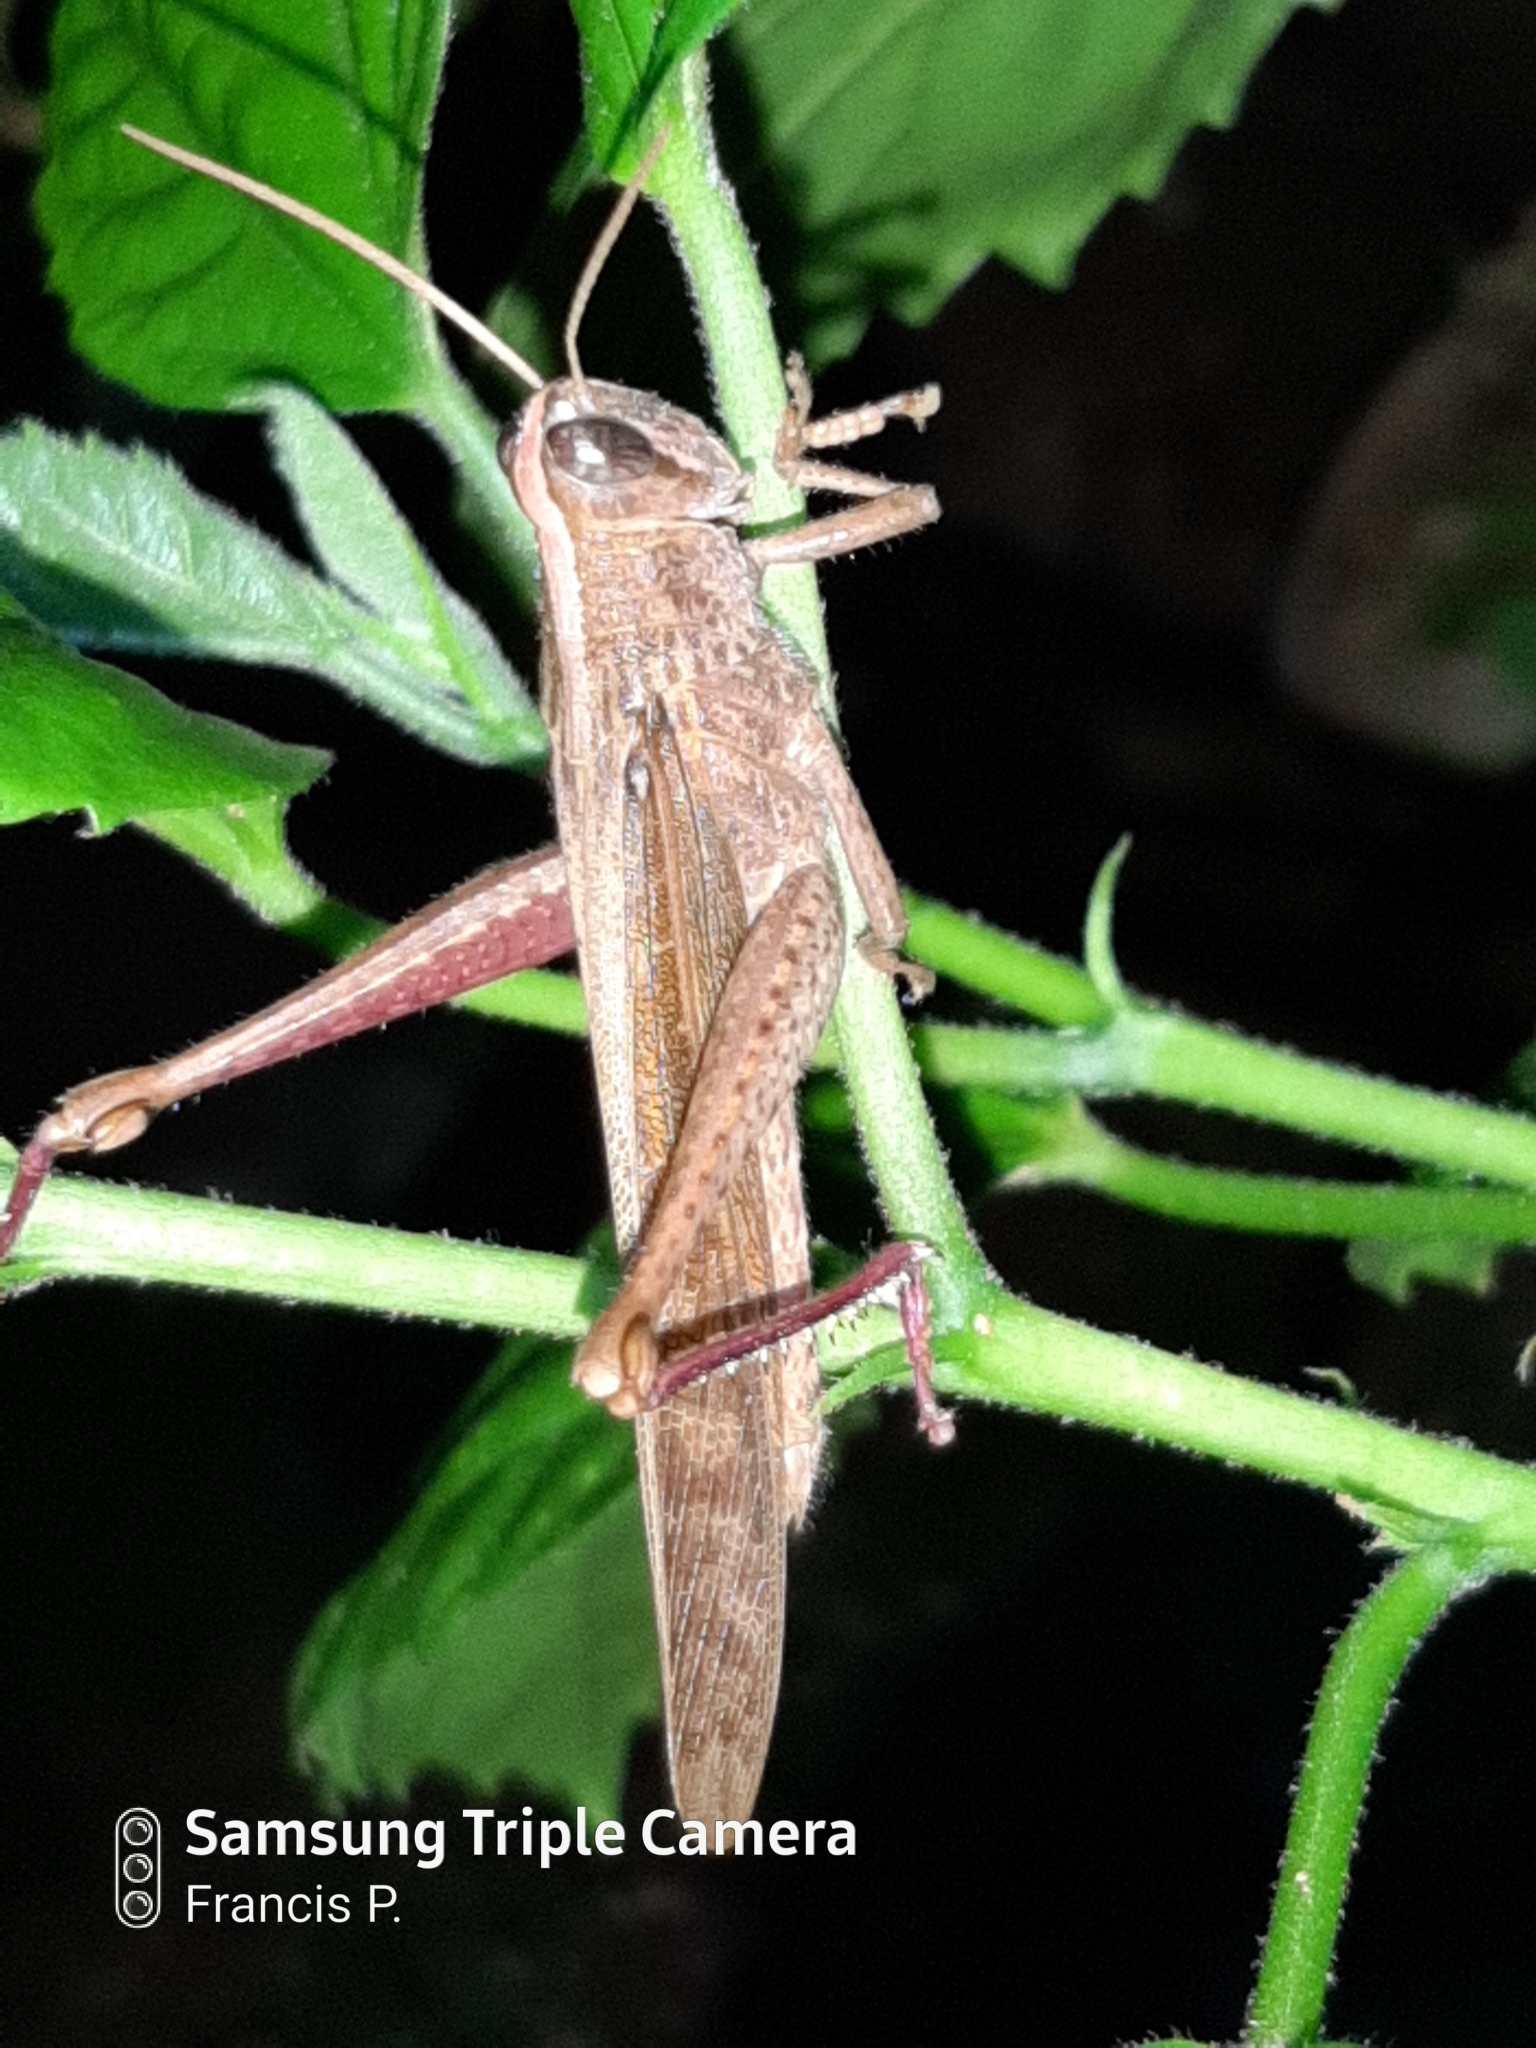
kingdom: Animalia
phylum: Arthropoda
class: Insecta
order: Orthoptera
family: Acrididae
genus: Schistocerca
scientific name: Schistocerca nitens
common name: Vagrant grasshopper
